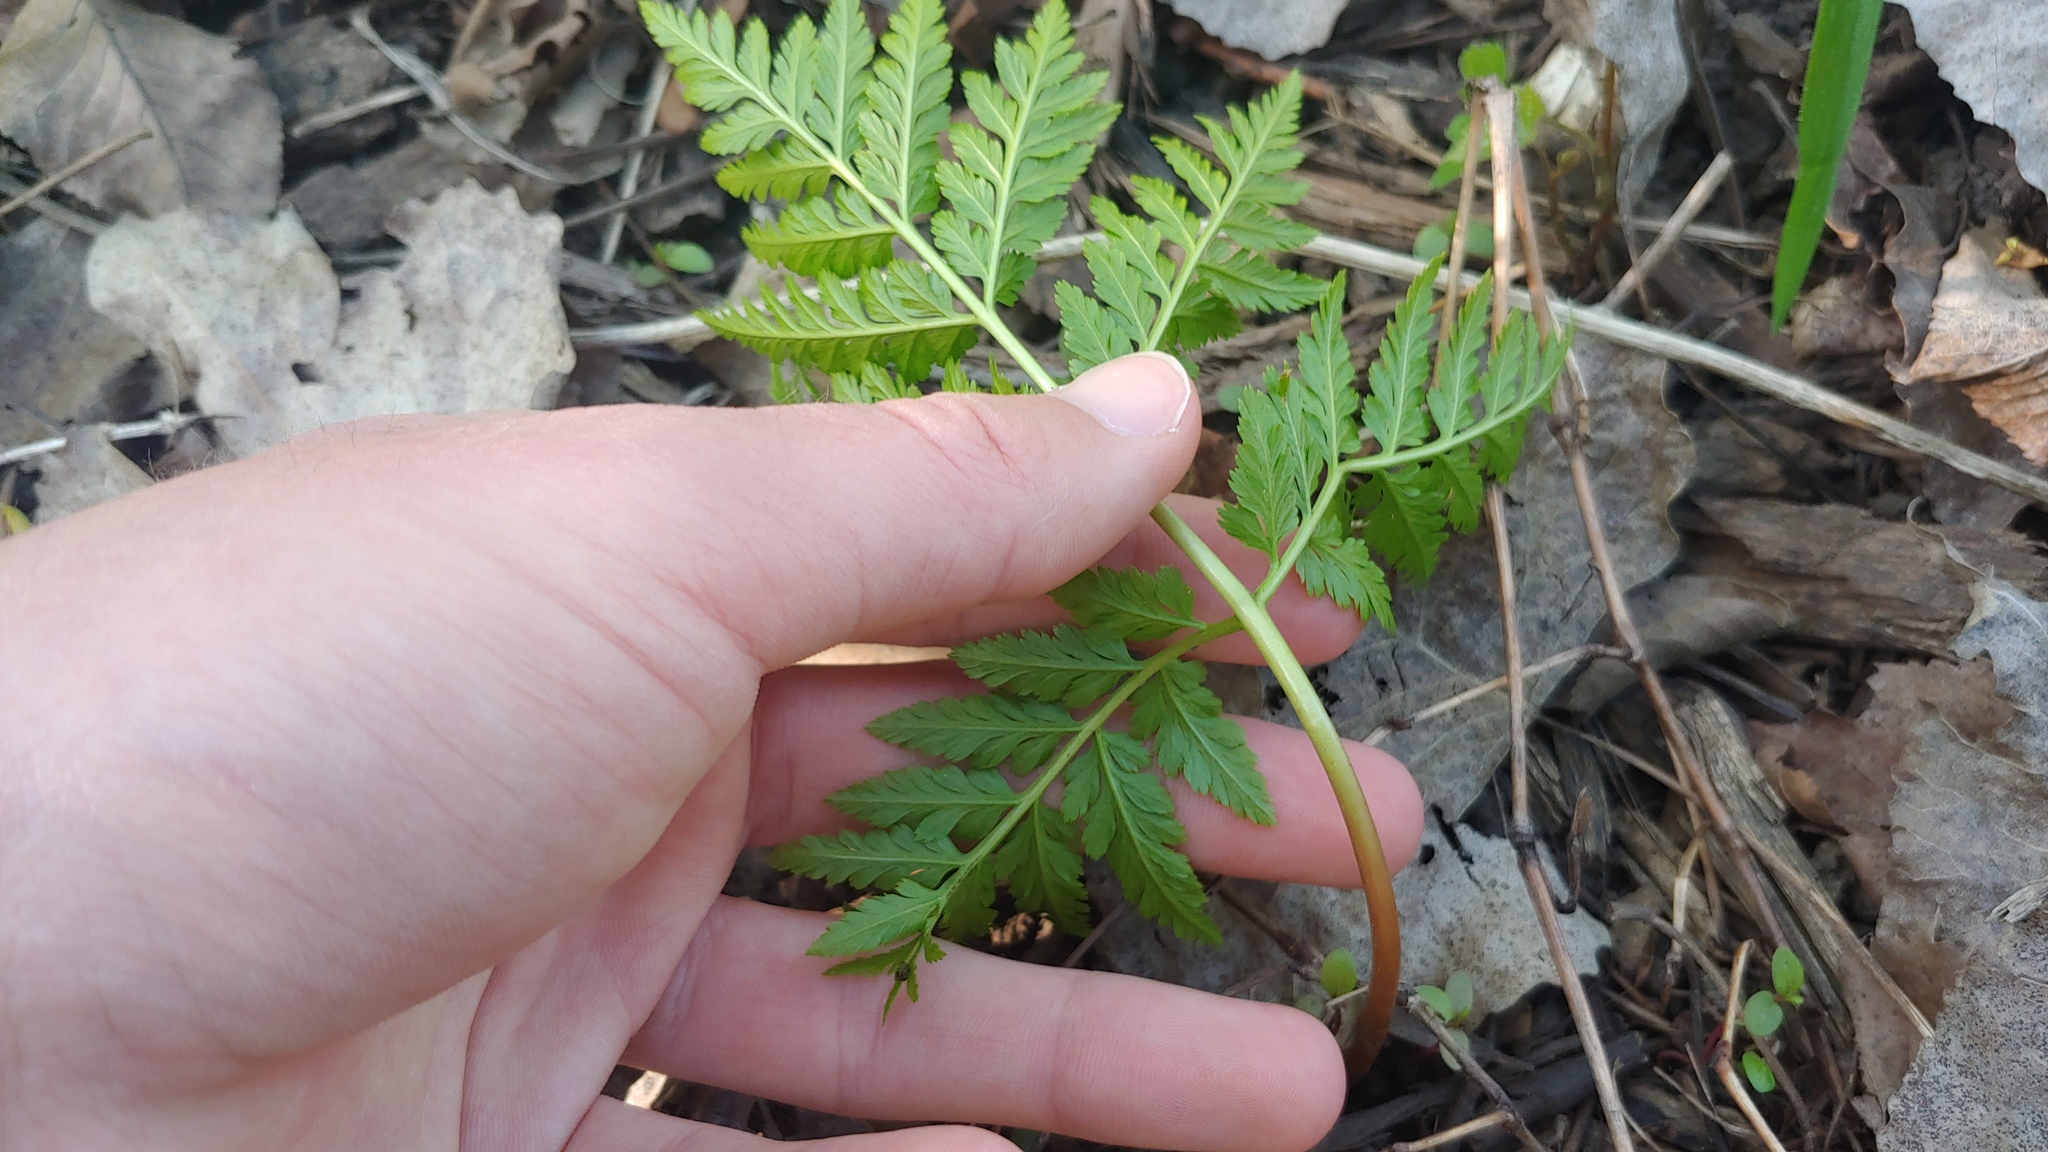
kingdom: Plantae
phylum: Tracheophyta
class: Polypodiopsida
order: Ophioglossales
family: Ophioglossaceae
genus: Botrypus
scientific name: Botrypus virginianus
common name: Common grapefern
